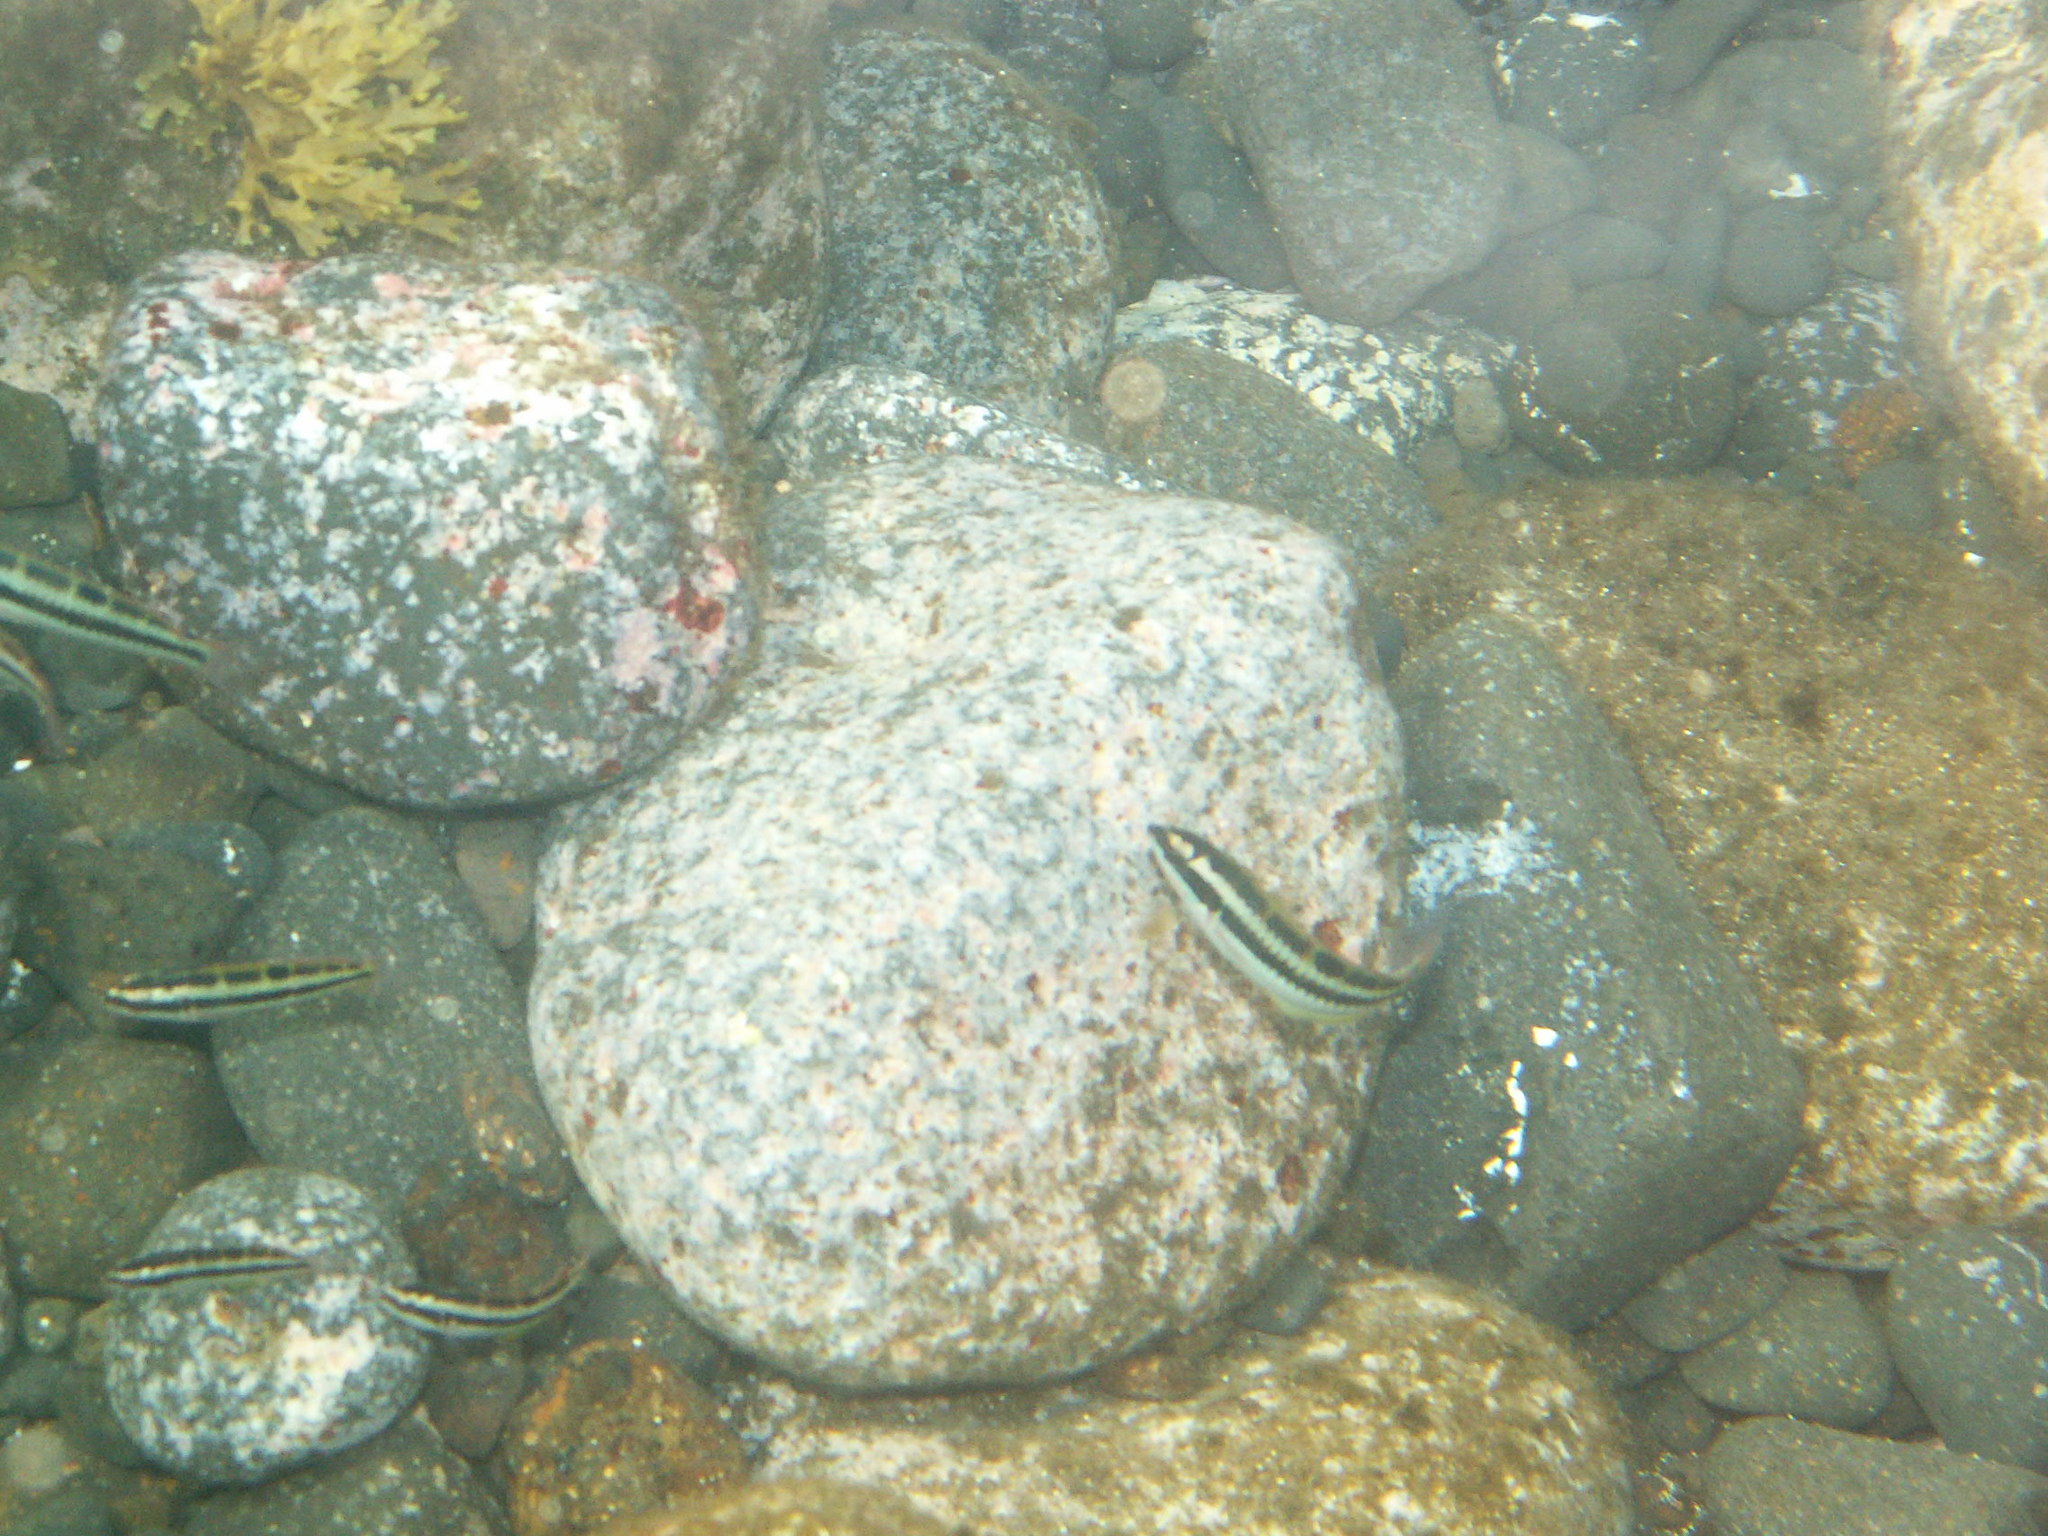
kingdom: Animalia
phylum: Chordata
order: Perciformes
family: Labridae
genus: Thalassoma
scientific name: Thalassoma pavo
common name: Ornate wrasse
